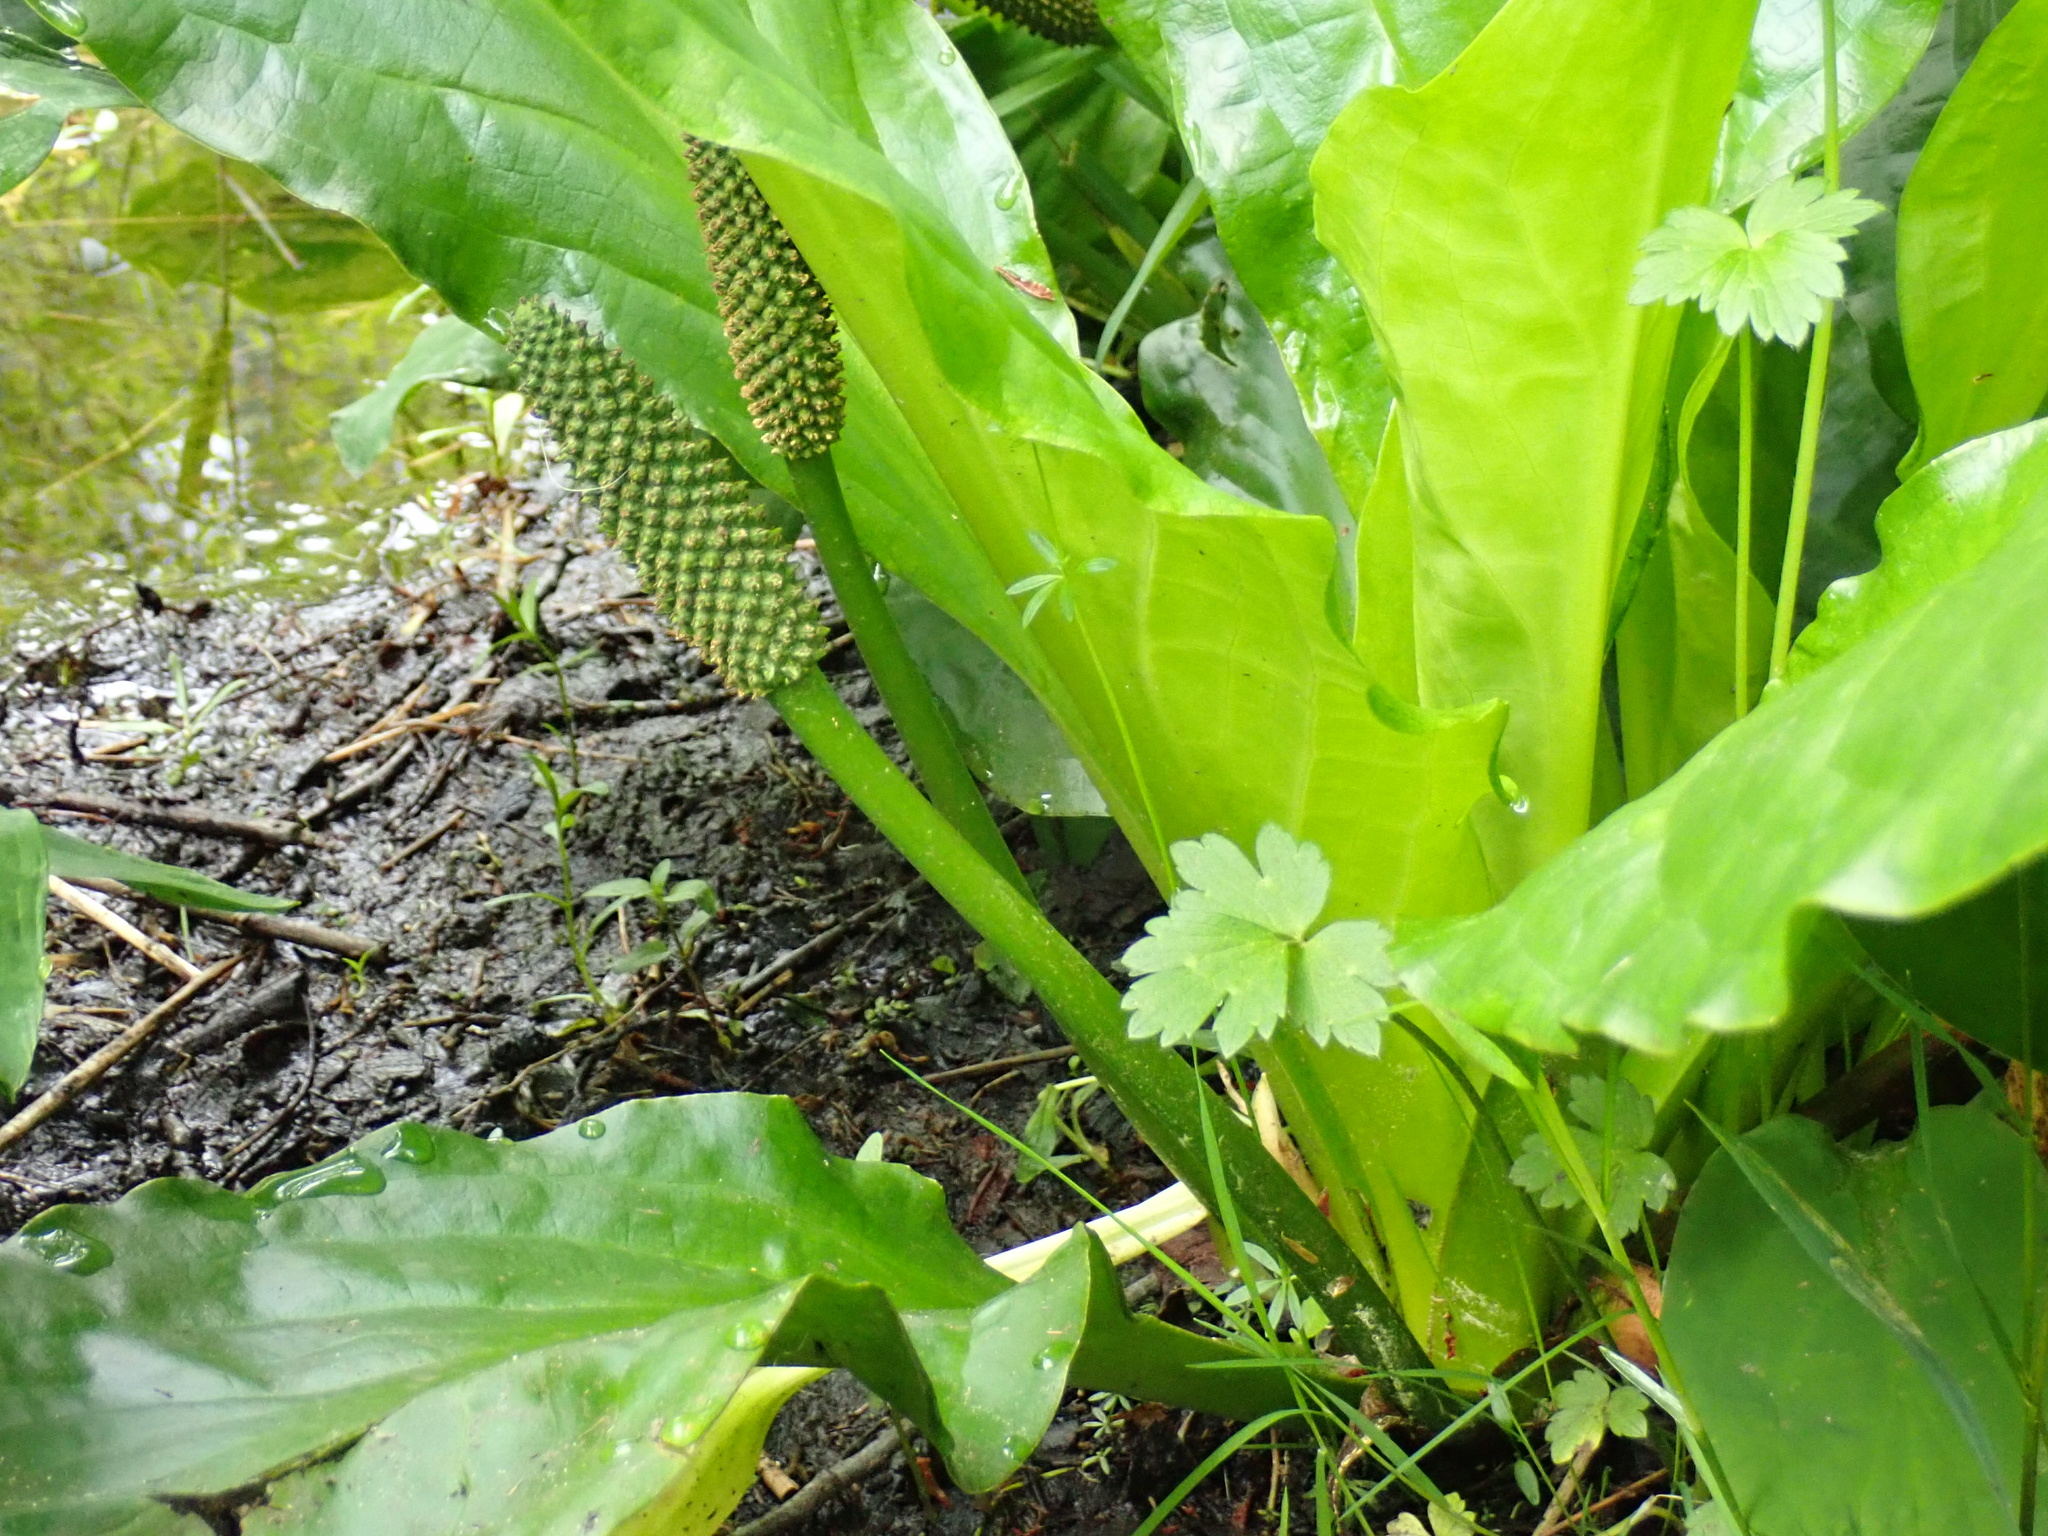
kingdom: Plantae
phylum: Tracheophyta
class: Liliopsida
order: Alismatales
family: Araceae
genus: Lysichiton
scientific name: Lysichiton americanus
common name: American skunk cabbage
